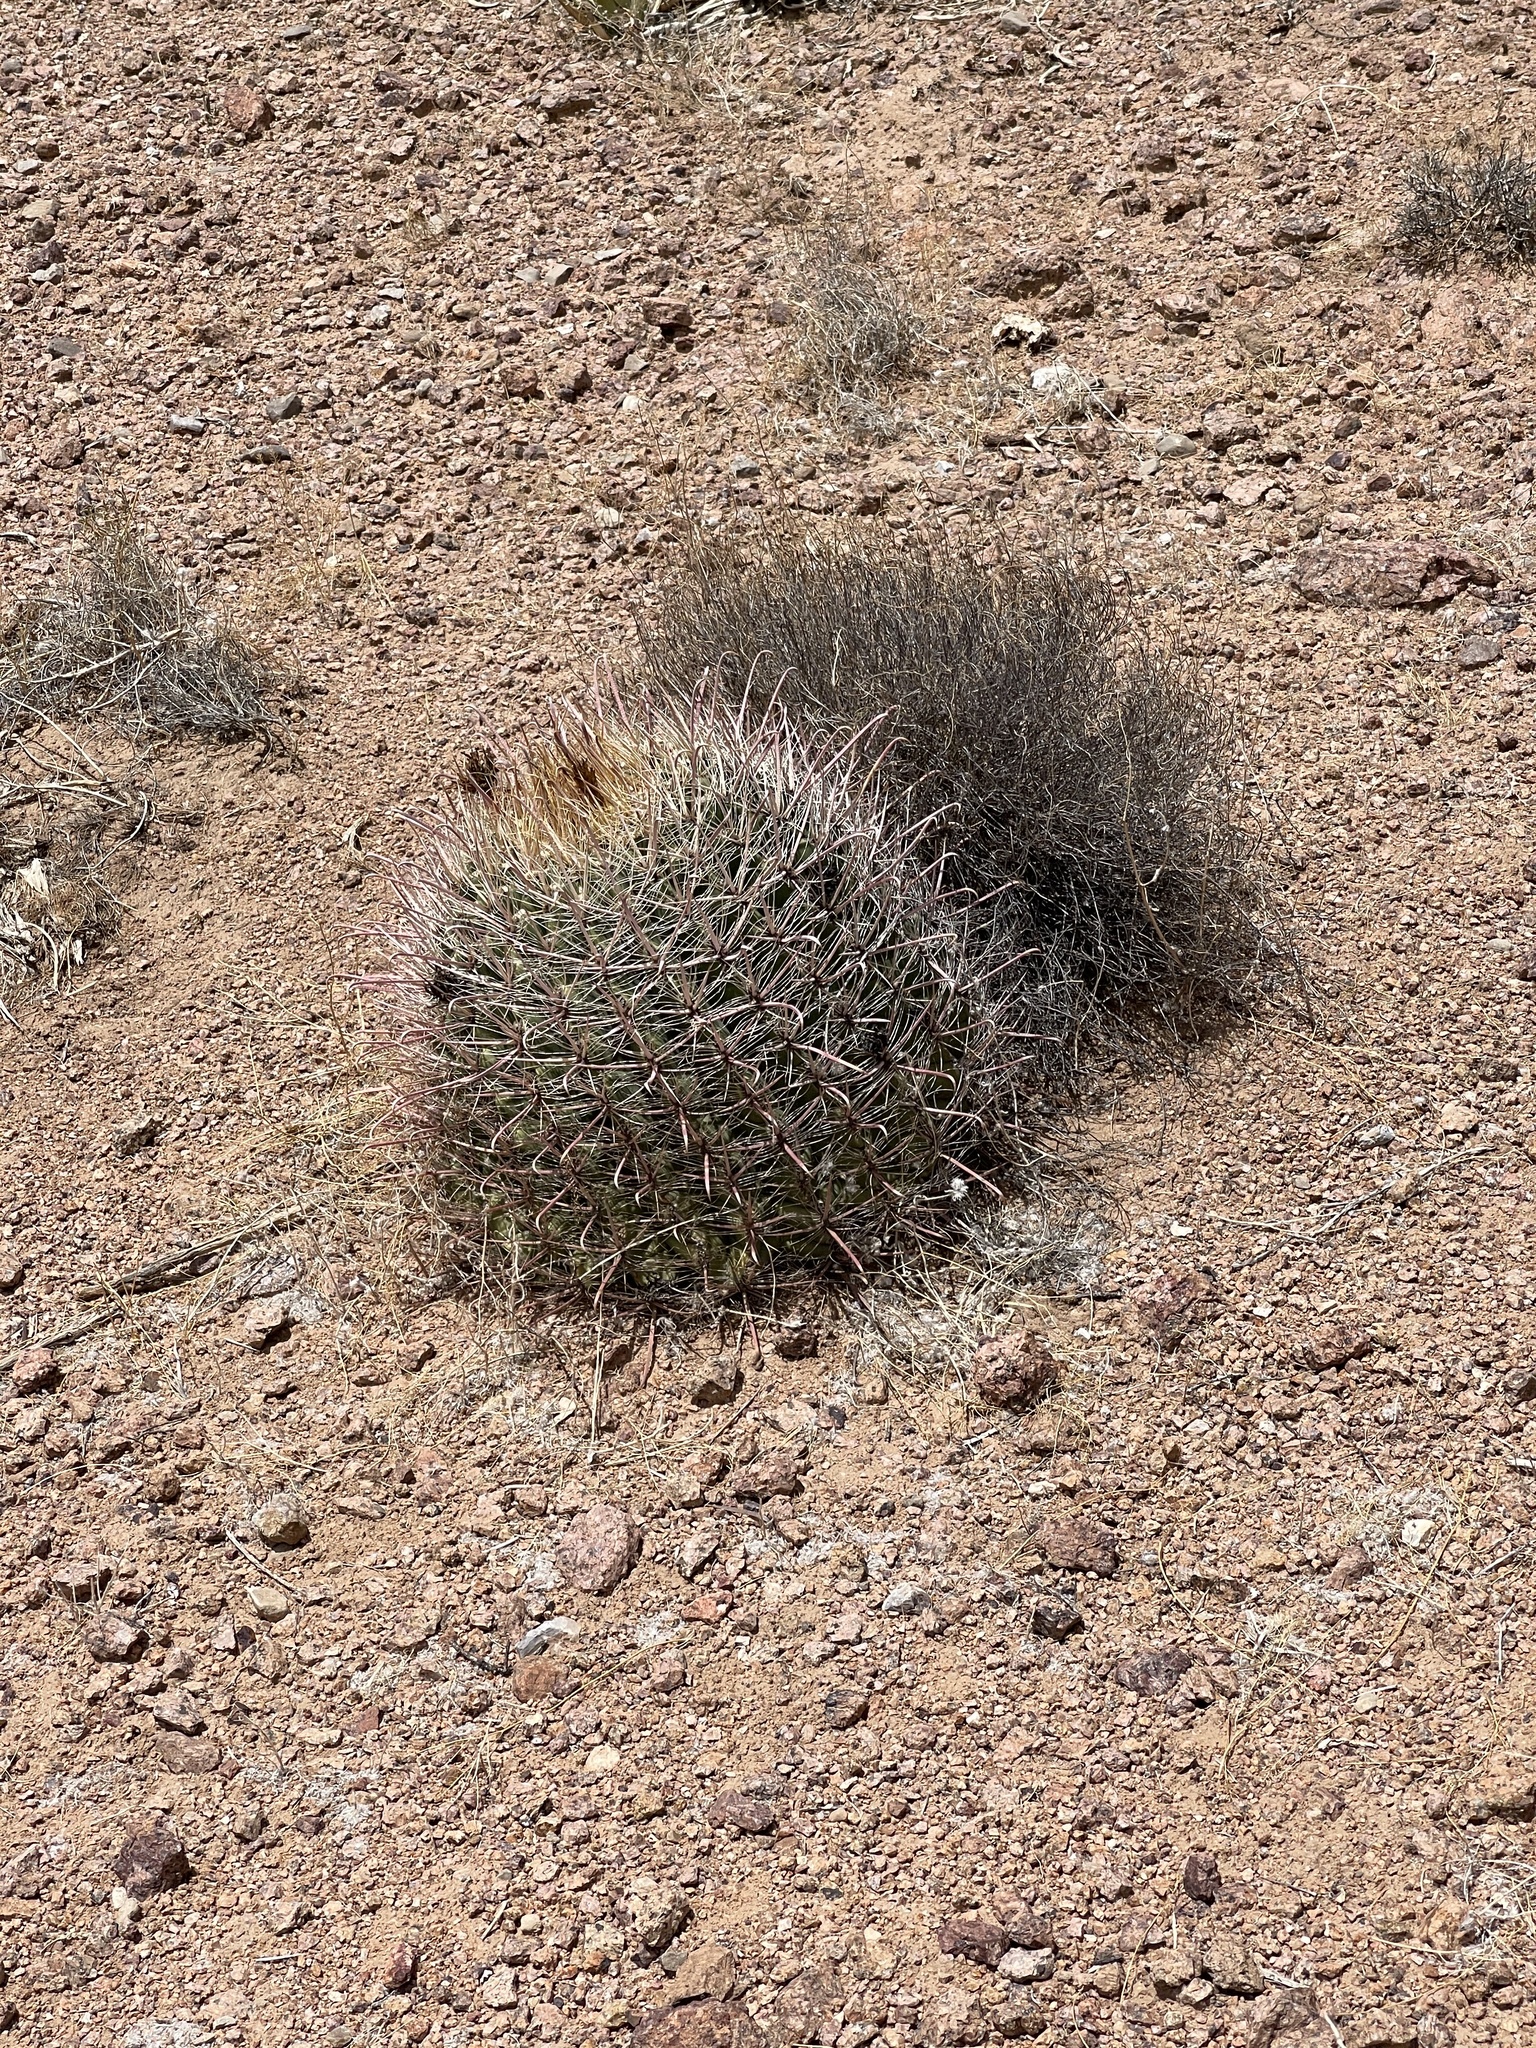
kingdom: Plantae
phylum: Tracheophyta
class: Magnoliopsida
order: Caryophyllales
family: Cactaceae
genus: Ferocactus
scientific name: Ferocactus wislizeni
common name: Candy barrel cactus
